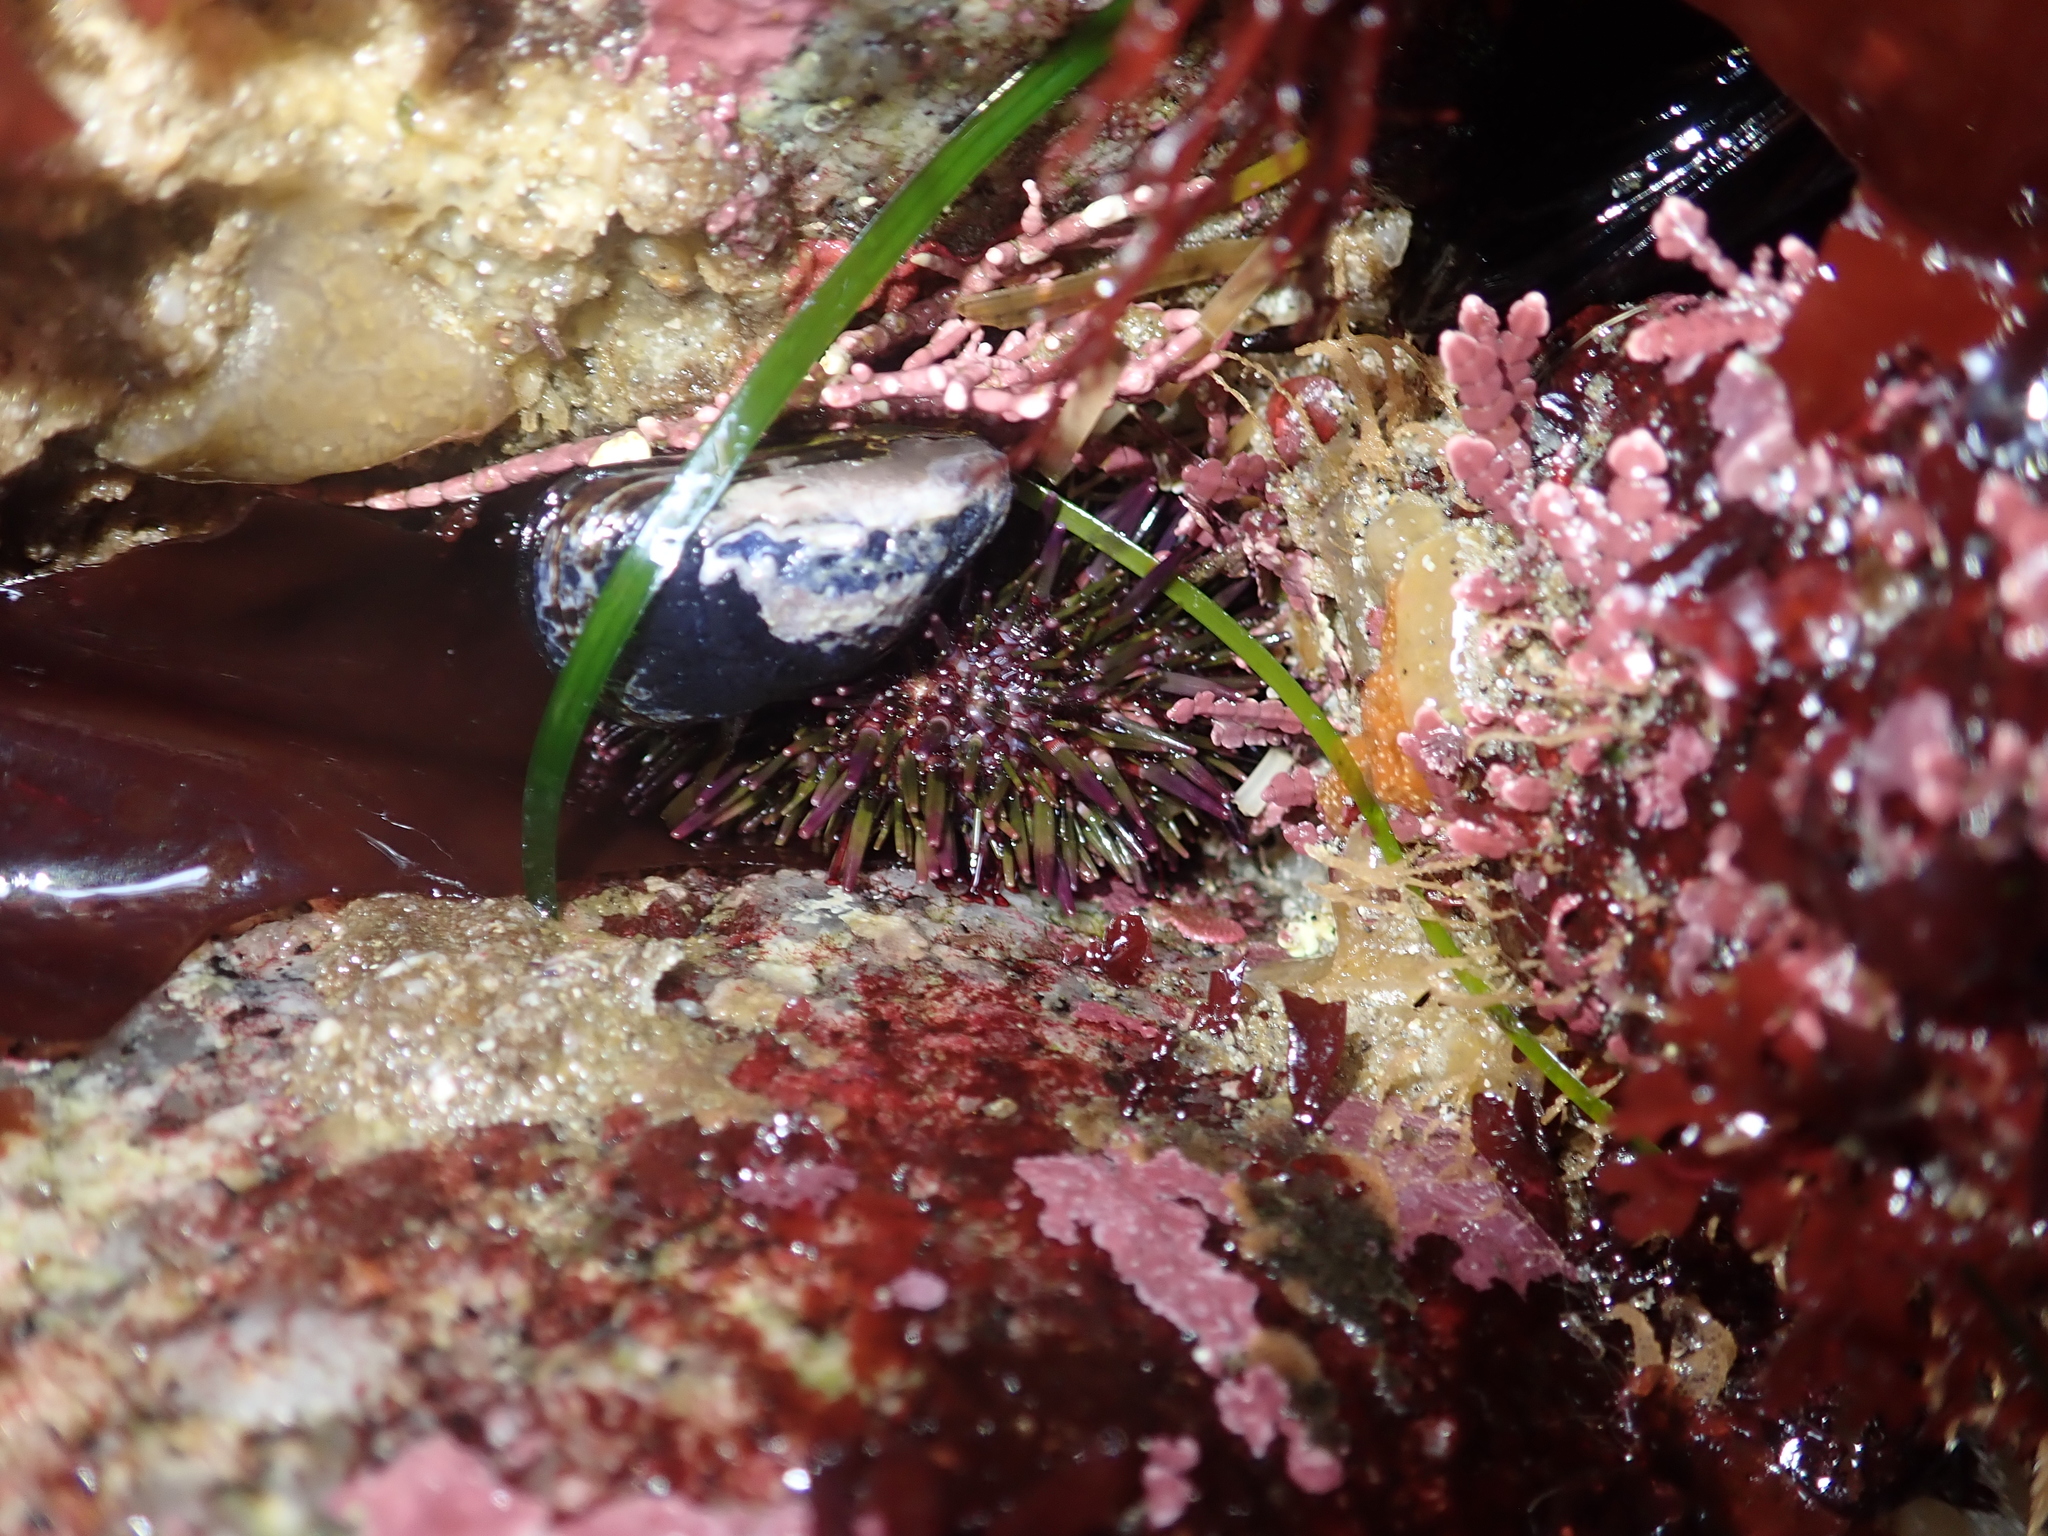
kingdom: Animalia
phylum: Echinodermata
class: Echinoidea
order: Camarodonta
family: Strongylocentrotidae
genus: Strongylocentrotus
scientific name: Strongylocentrotus purpuratus
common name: Purple sea urchin
